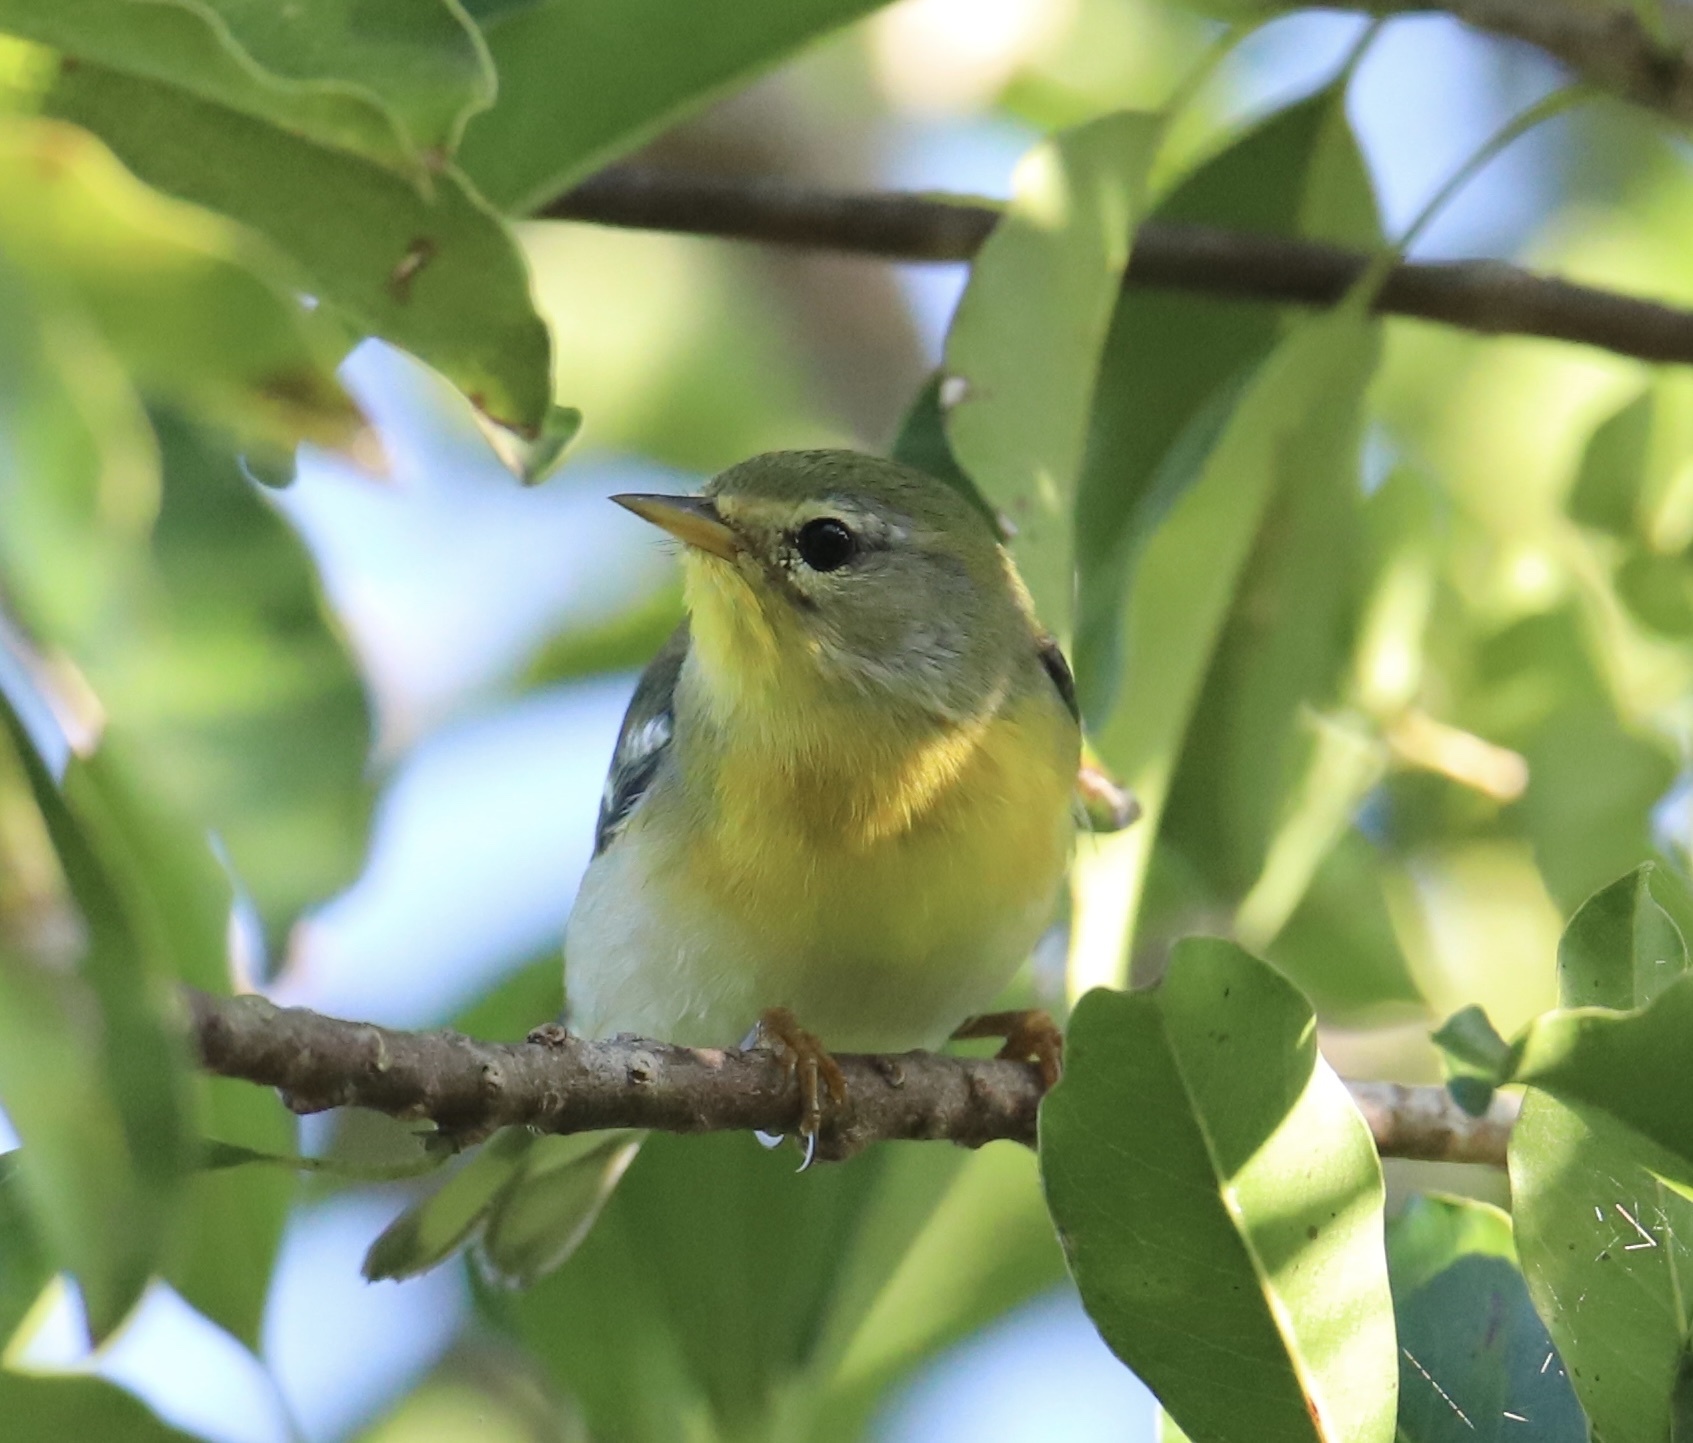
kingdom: Animalia
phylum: Chordata
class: Aves
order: Passeriformes
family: Parulidae
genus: Setophaga
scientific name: Setophaga americana
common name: Northern parula
